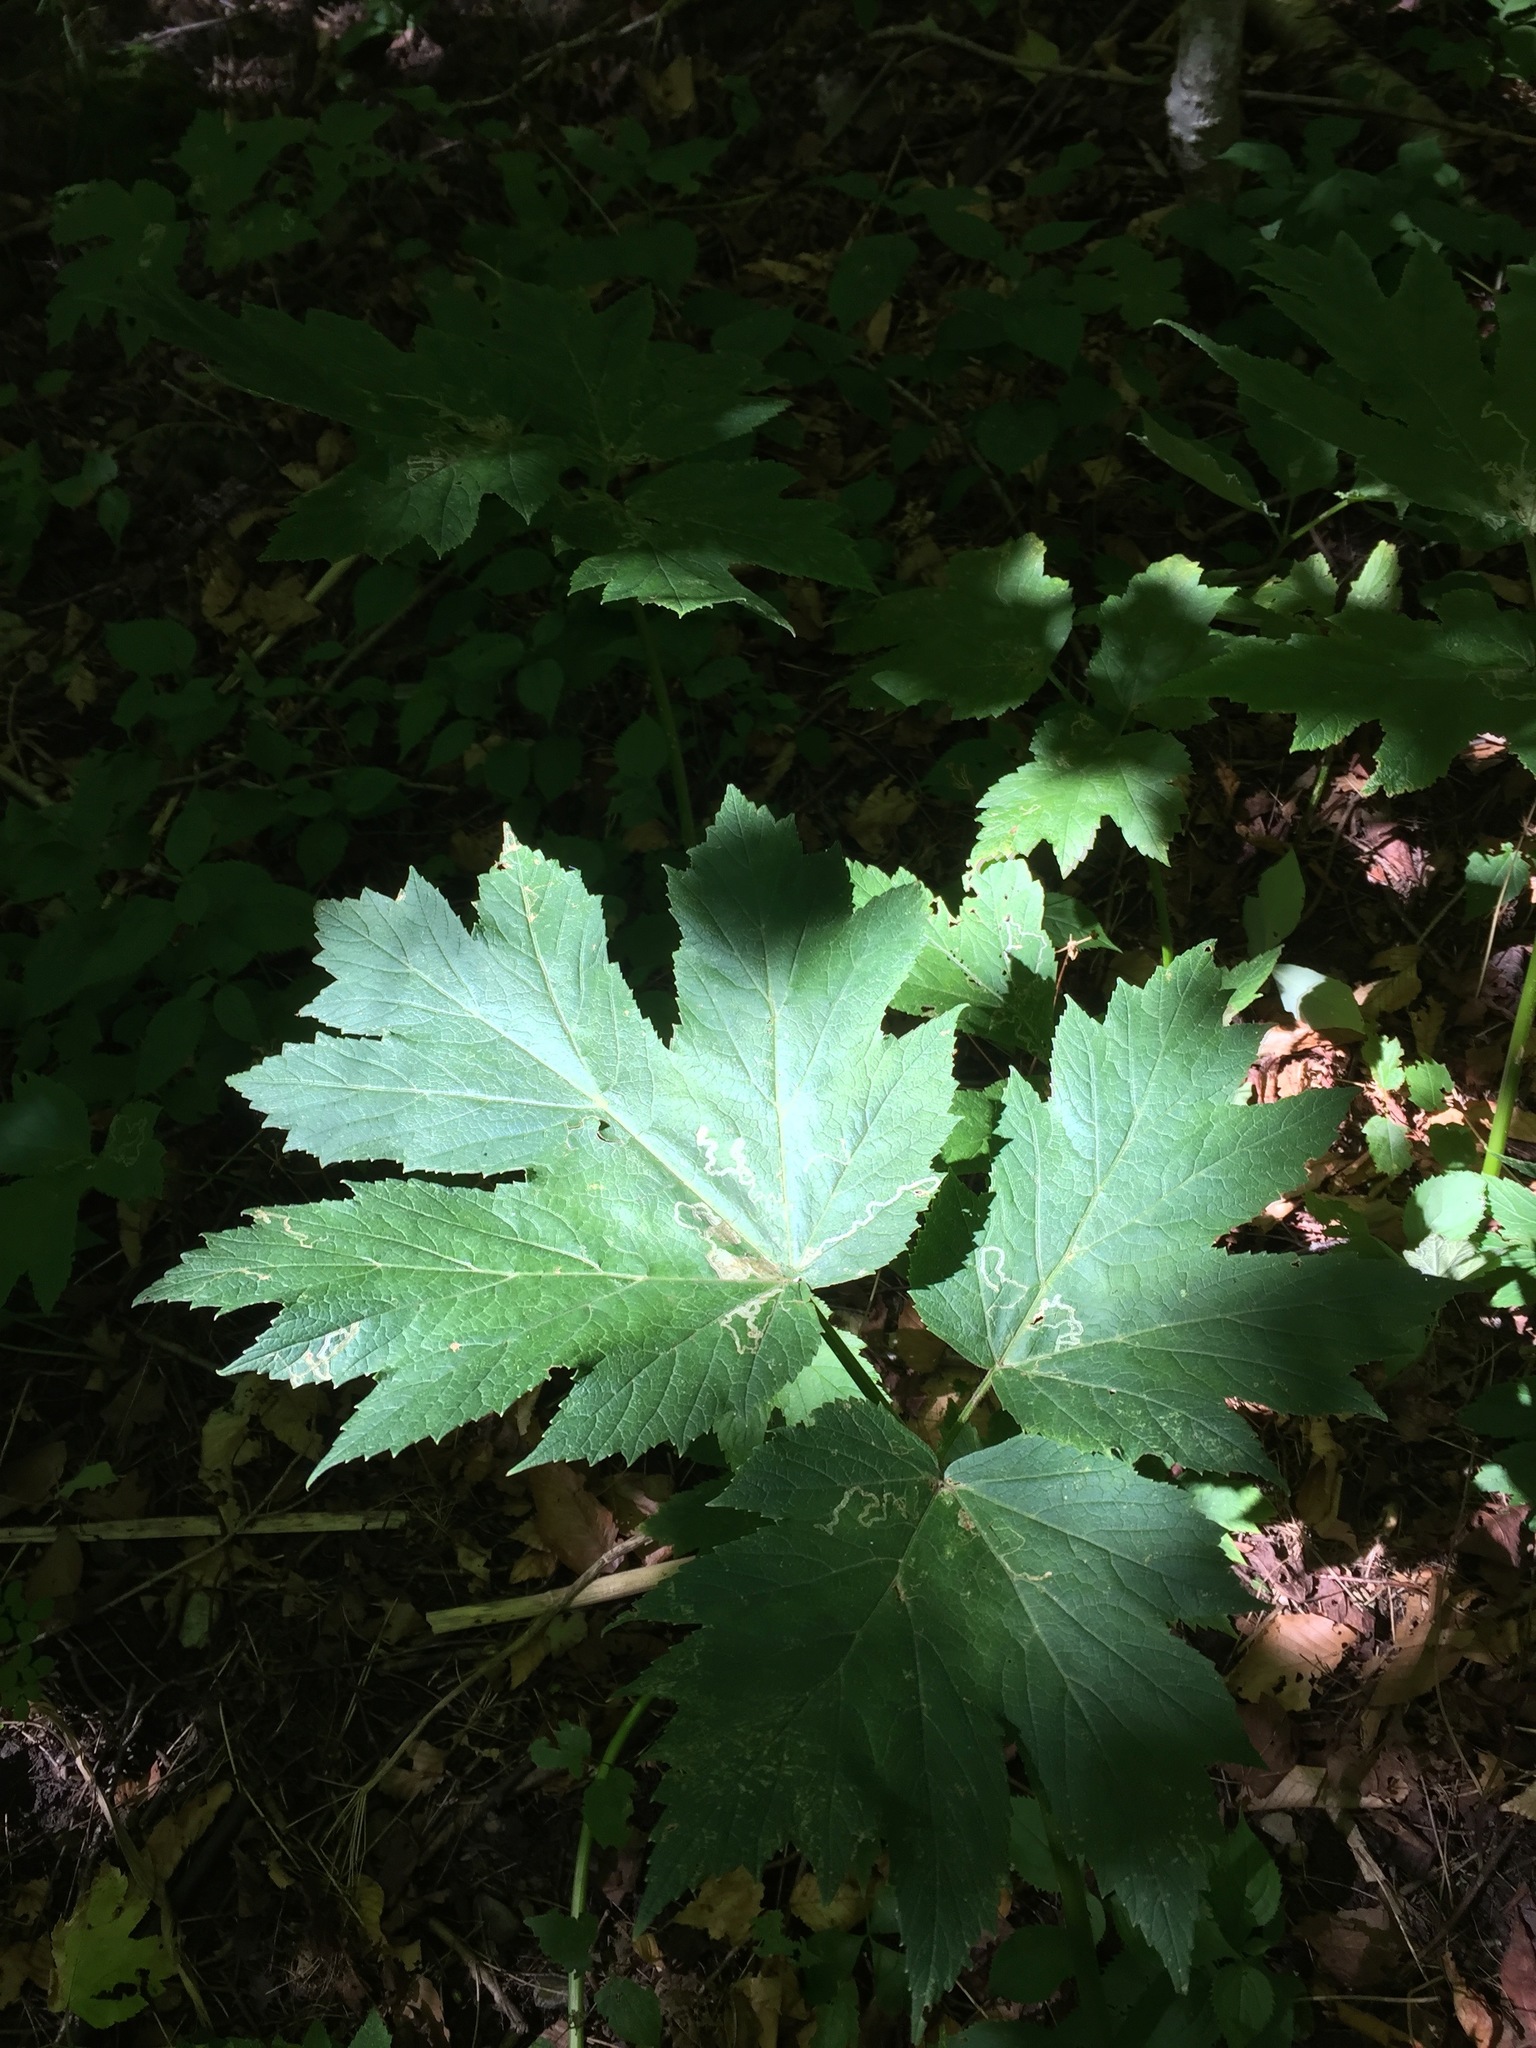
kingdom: Plantae
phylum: Tracheophyta
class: Magnoliopsida
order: Apiales
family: Apiaceae
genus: Heracleum
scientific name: Heracleum maximum
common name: American cow parsnip
